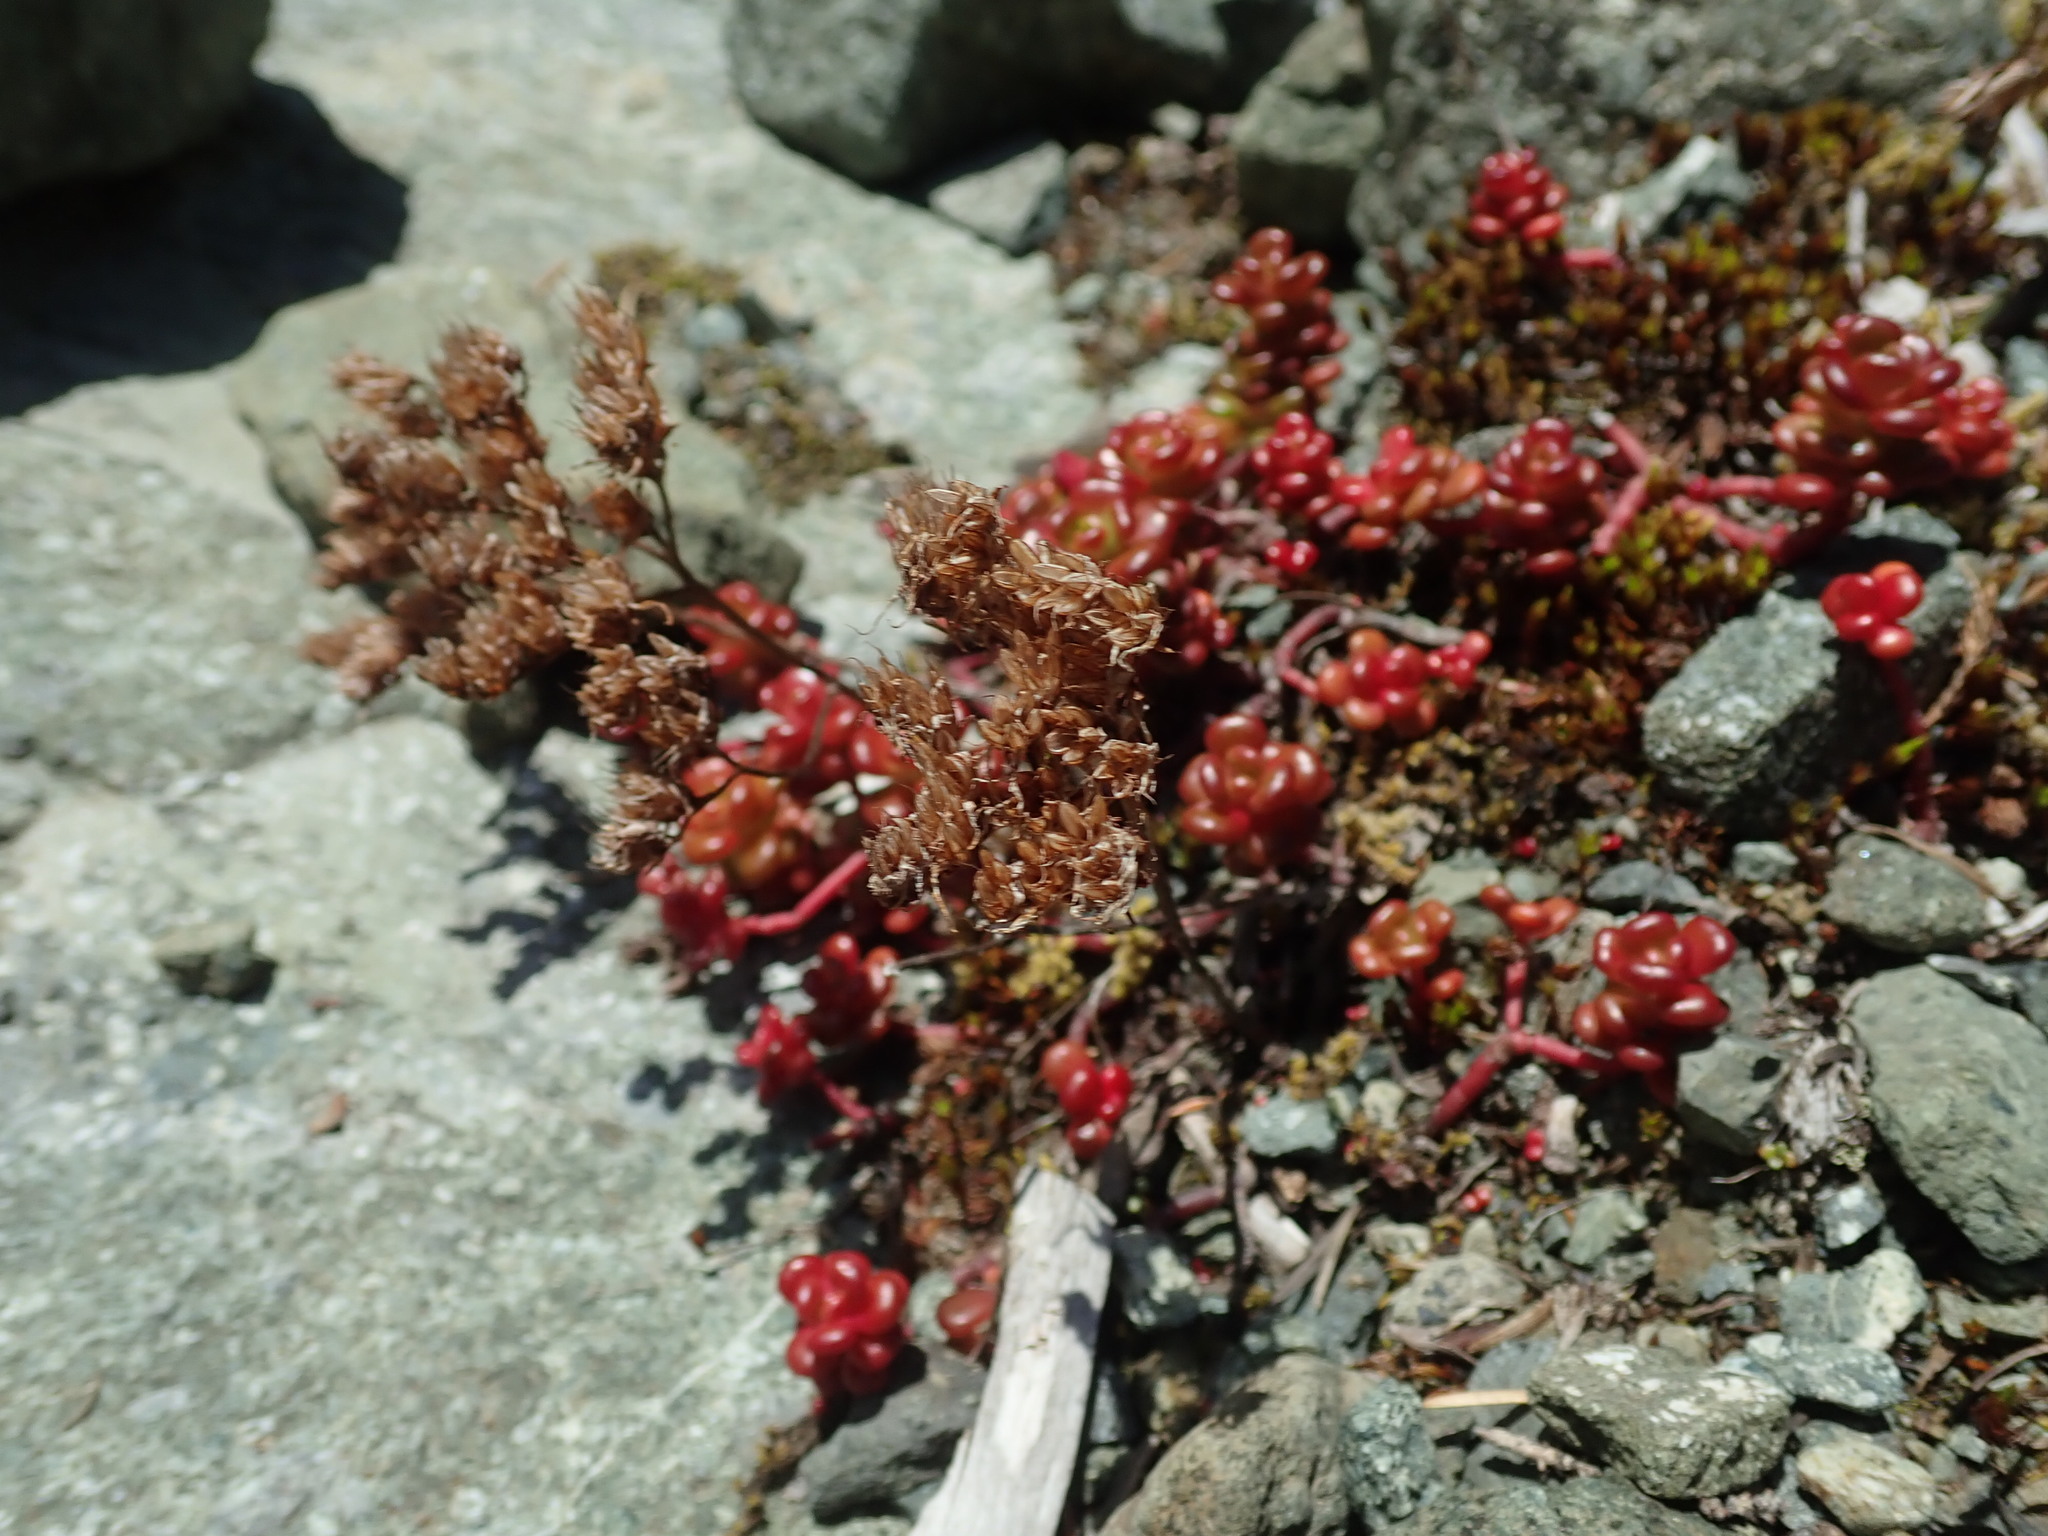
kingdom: Plantae
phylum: Tracheophyta
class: Magnoliopsida
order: Saxifragales
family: Crassulaceae
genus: Sedum
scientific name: Sedum oreganum
